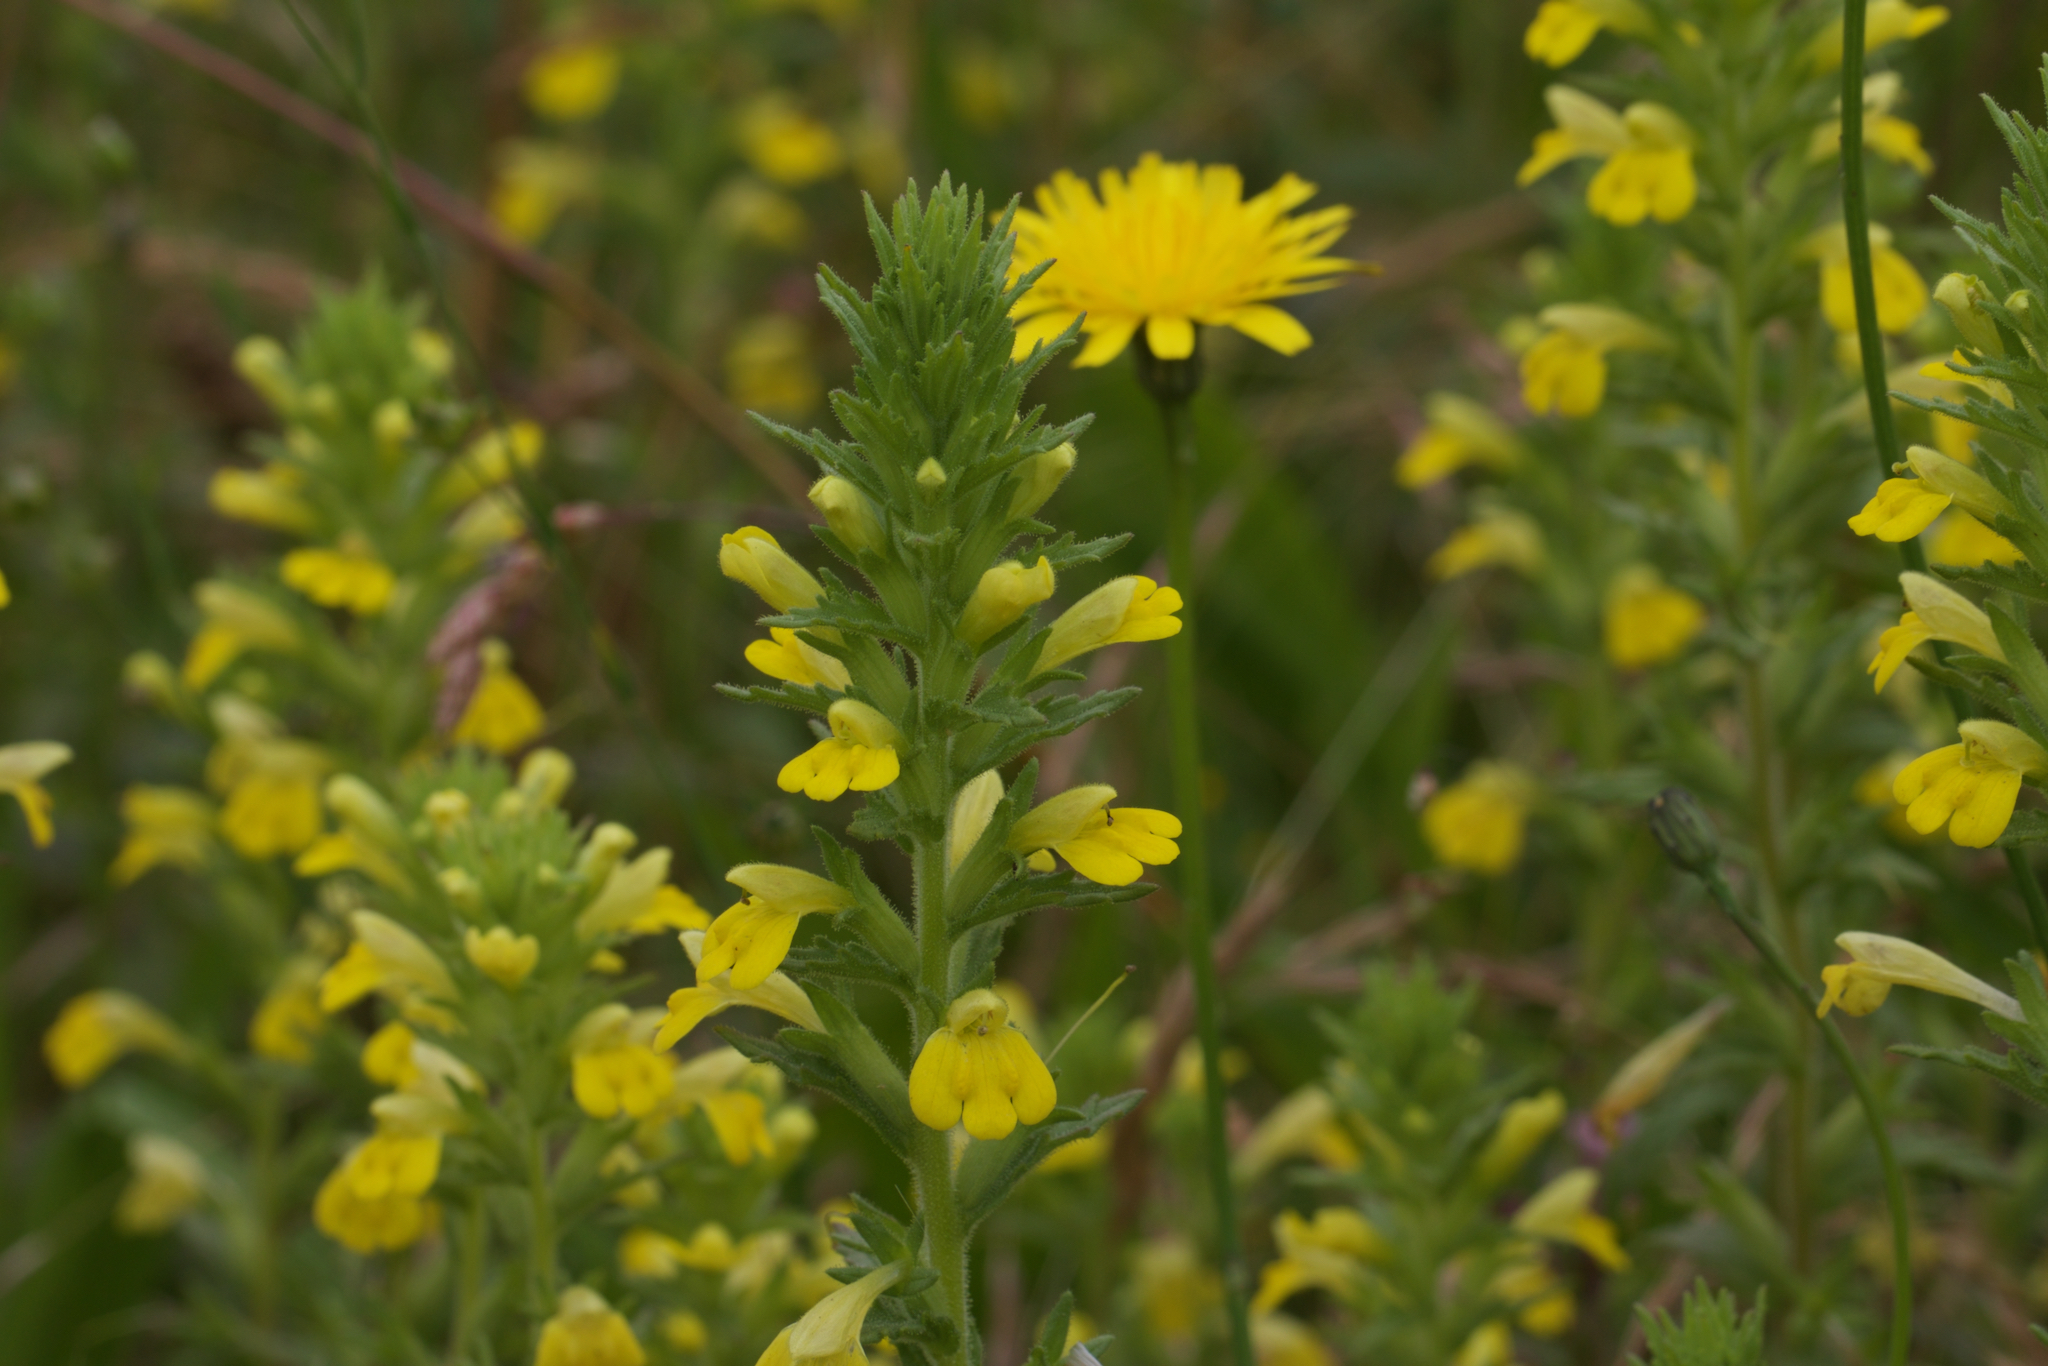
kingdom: Plantae
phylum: Tracheophyta
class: Magnoliopsida
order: Lamiales
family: Orobanchaceae
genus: Bellardia
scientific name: Bellardia viscosa
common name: Sticky parentucellia
